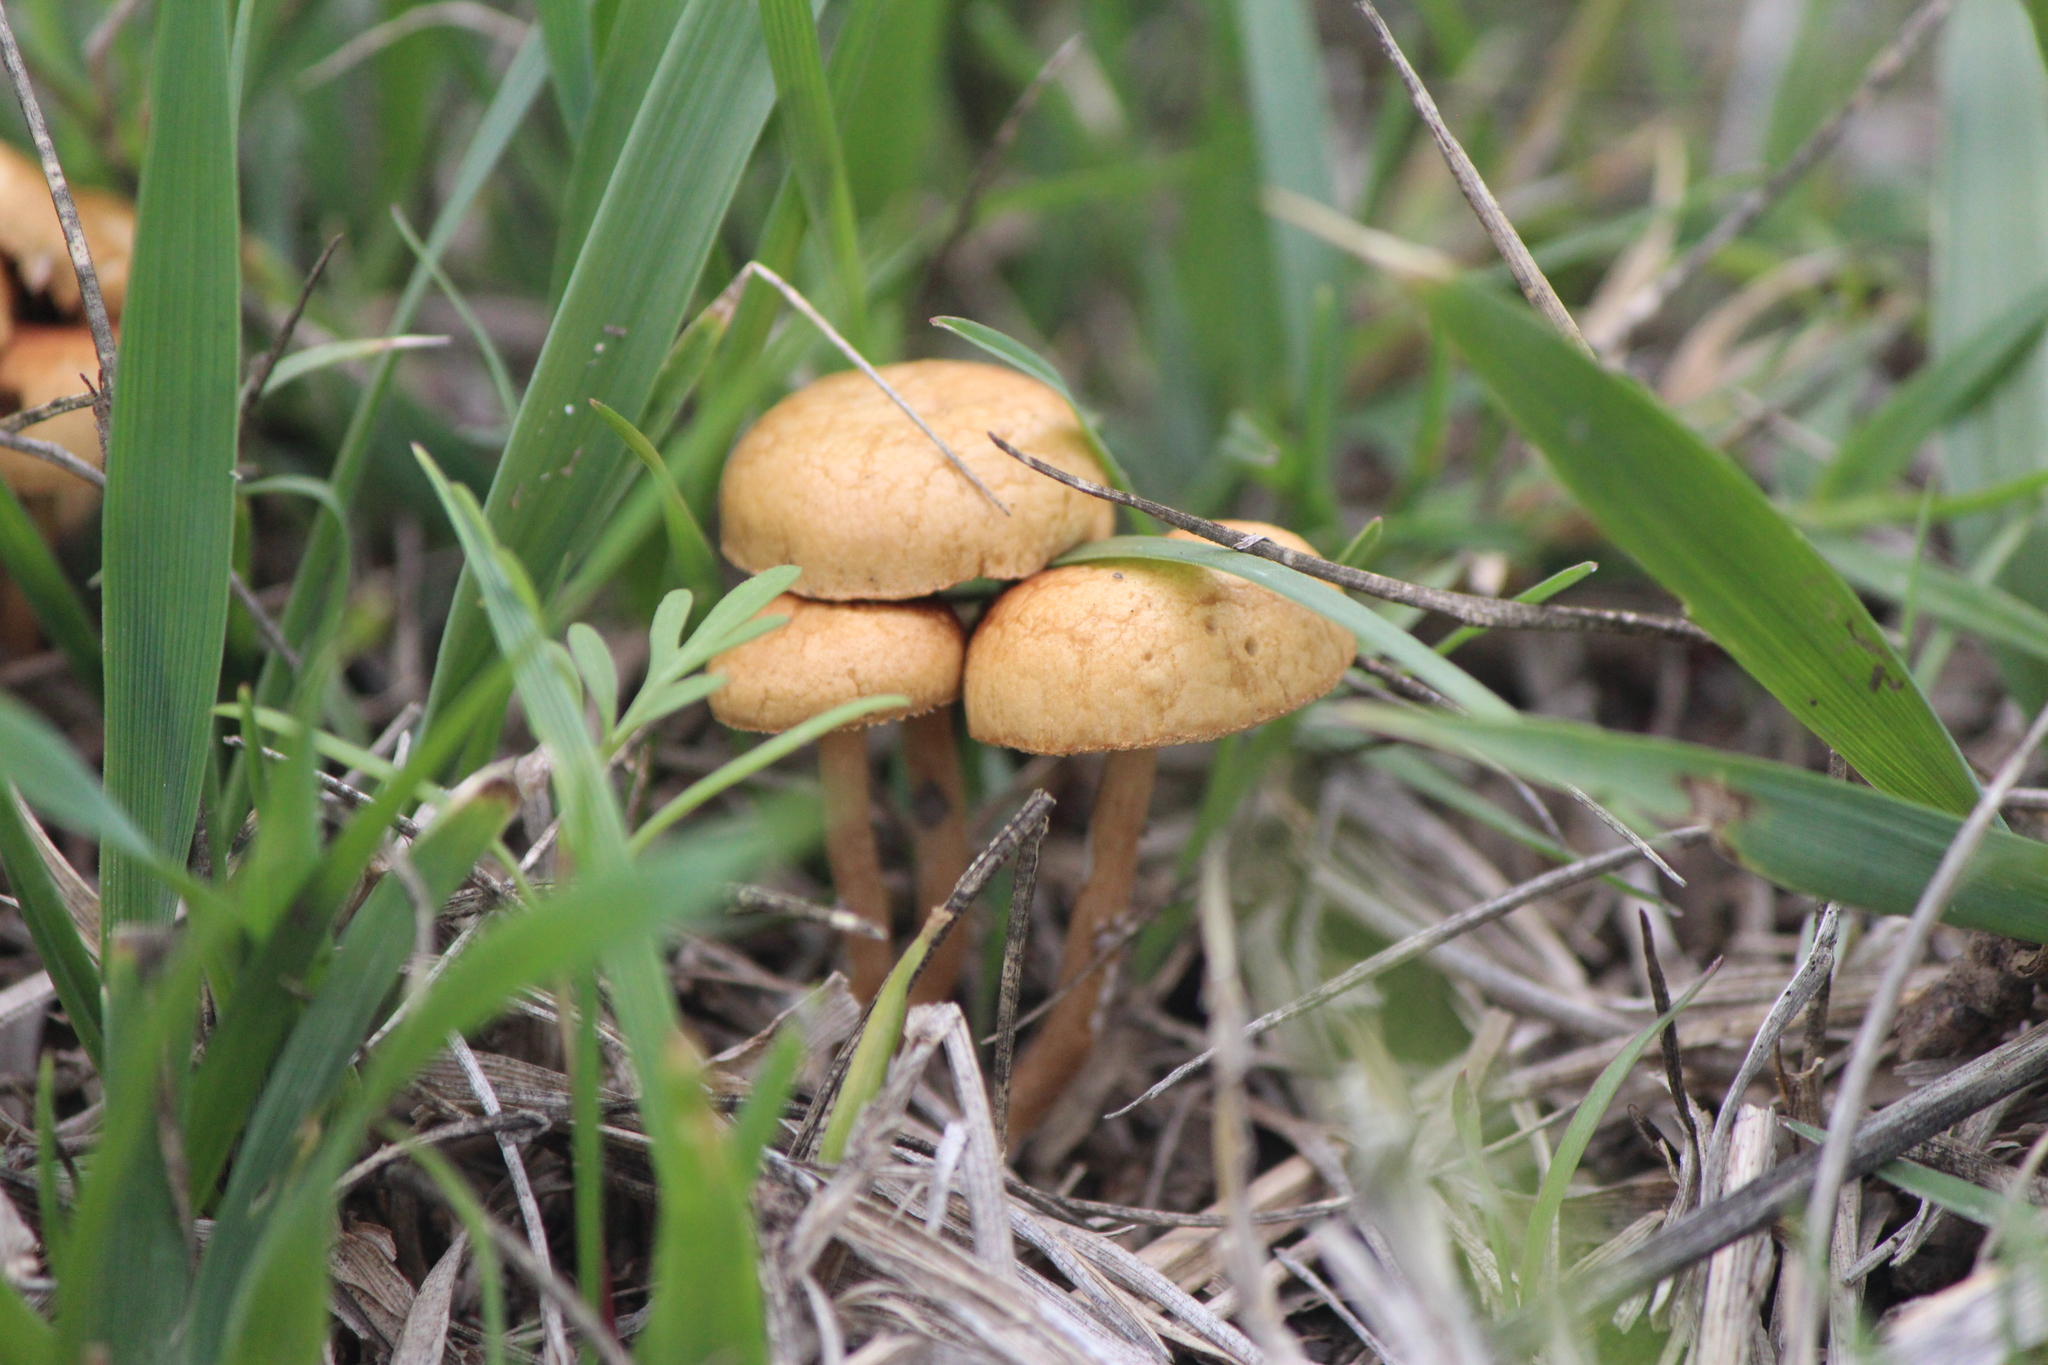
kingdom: Fungi
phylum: Basidiomycota
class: Agaricomycetes
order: Agaricales
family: Strophariaceae
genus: Agrocybe
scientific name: Agrocybe pediades
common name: Common fieldcap
